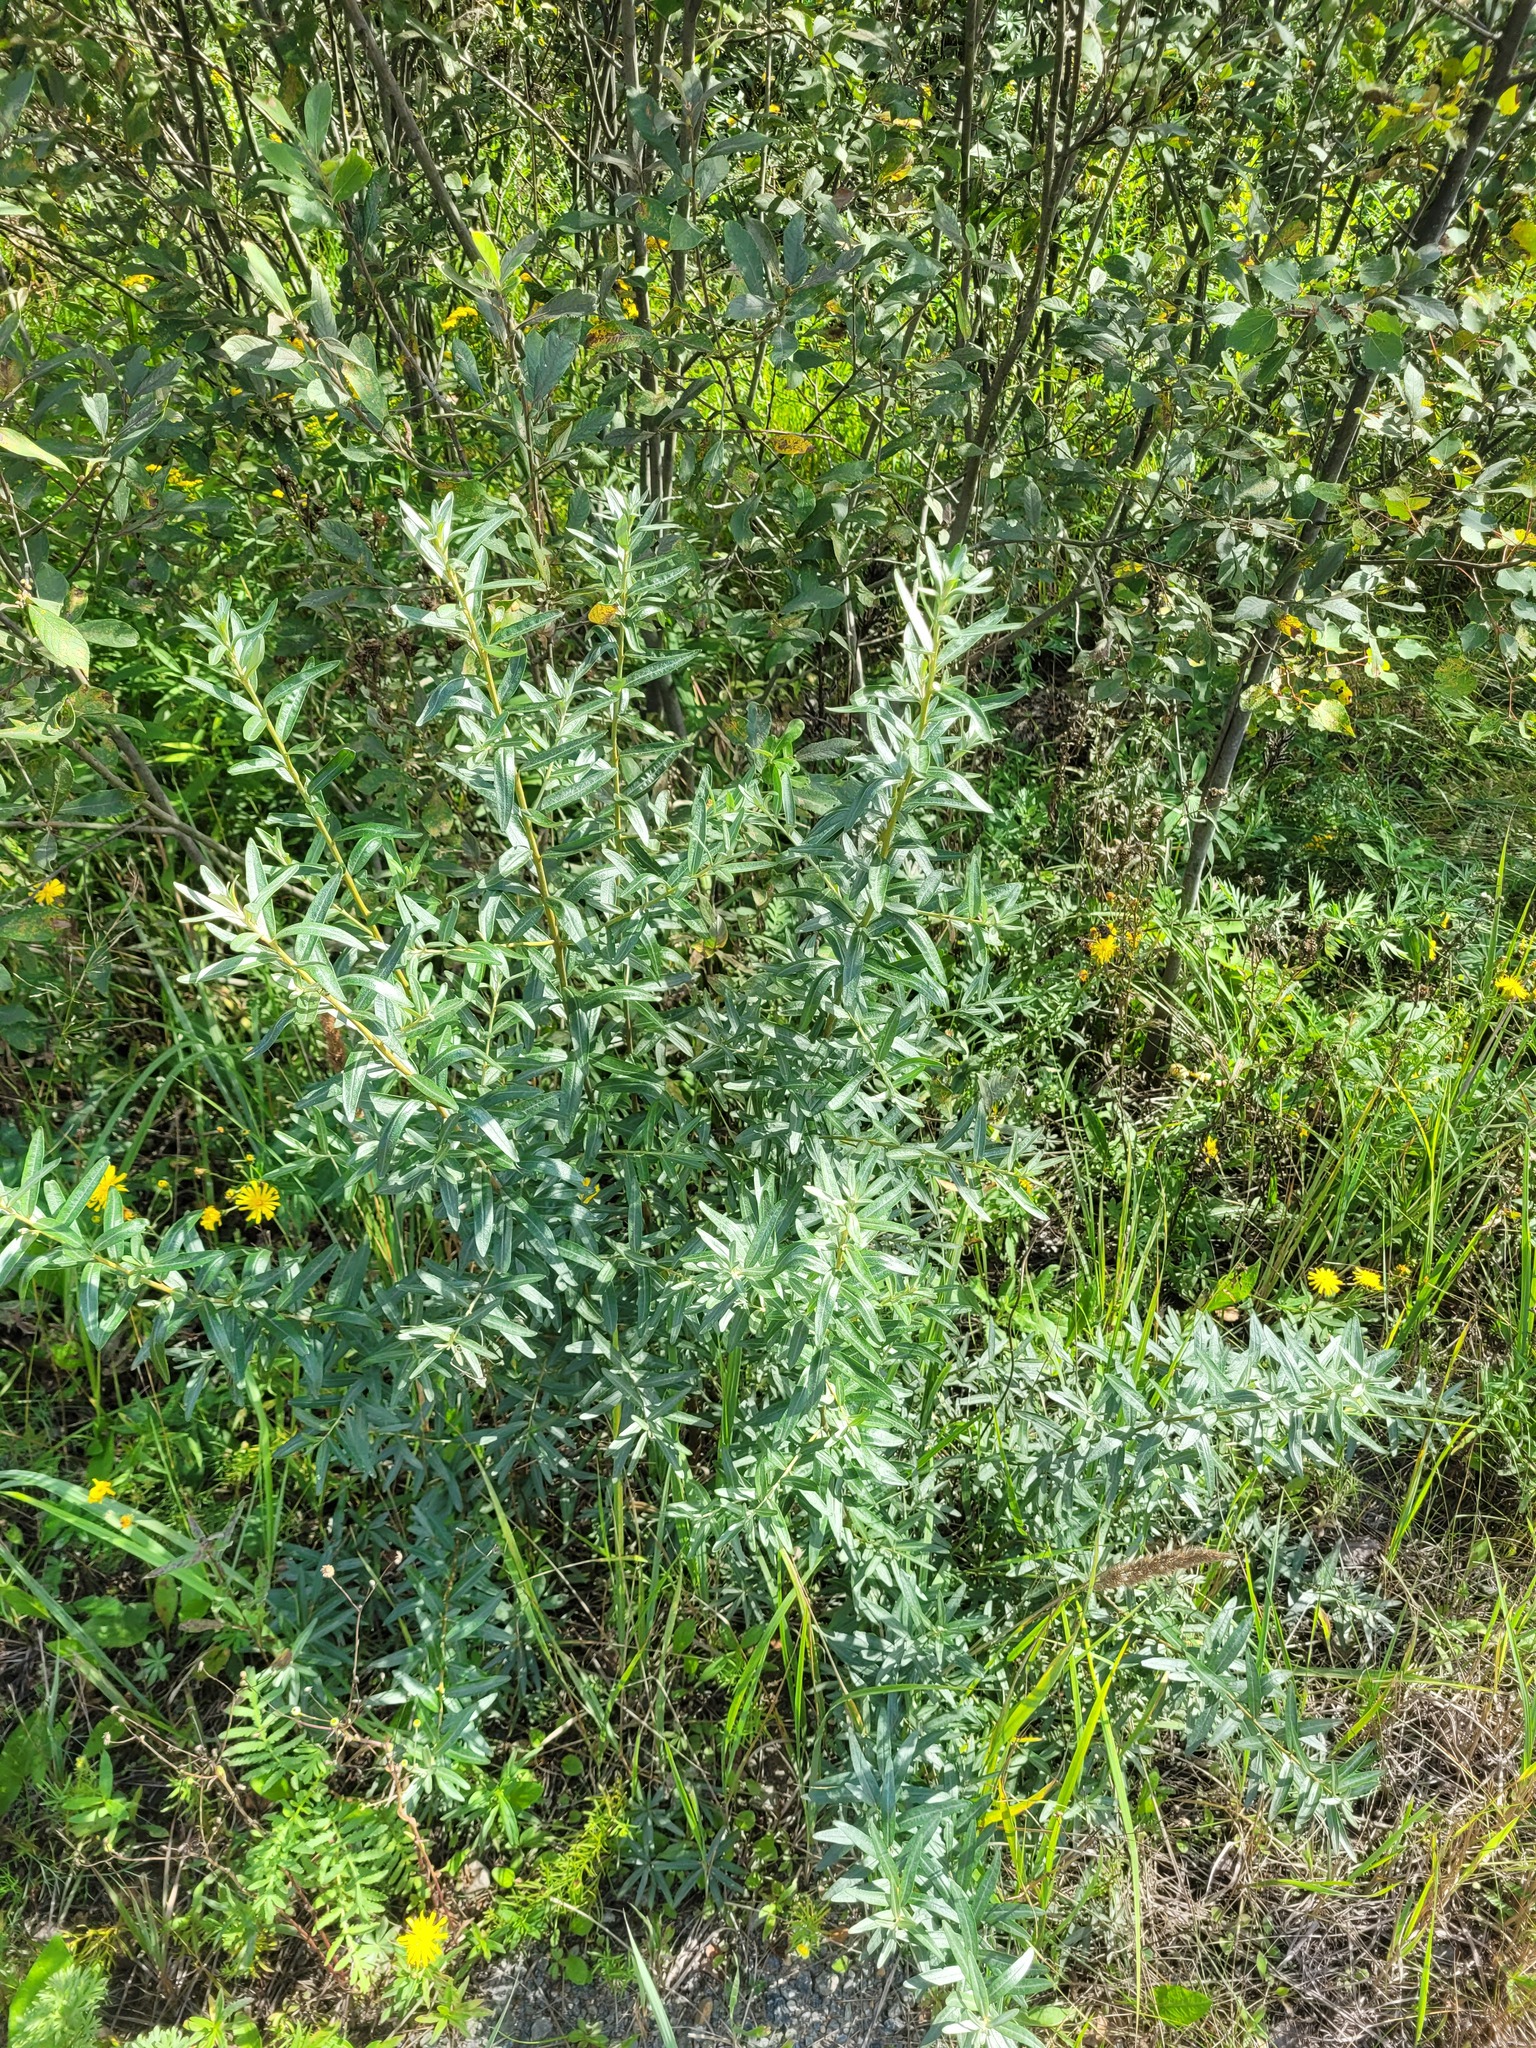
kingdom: Plantae
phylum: Tracheophyta
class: Magnoliopsida
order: Rosales
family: Elaeagnaceae
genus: Hippophae
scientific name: Hippophae rhamnoides
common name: Sea-buckthorn
